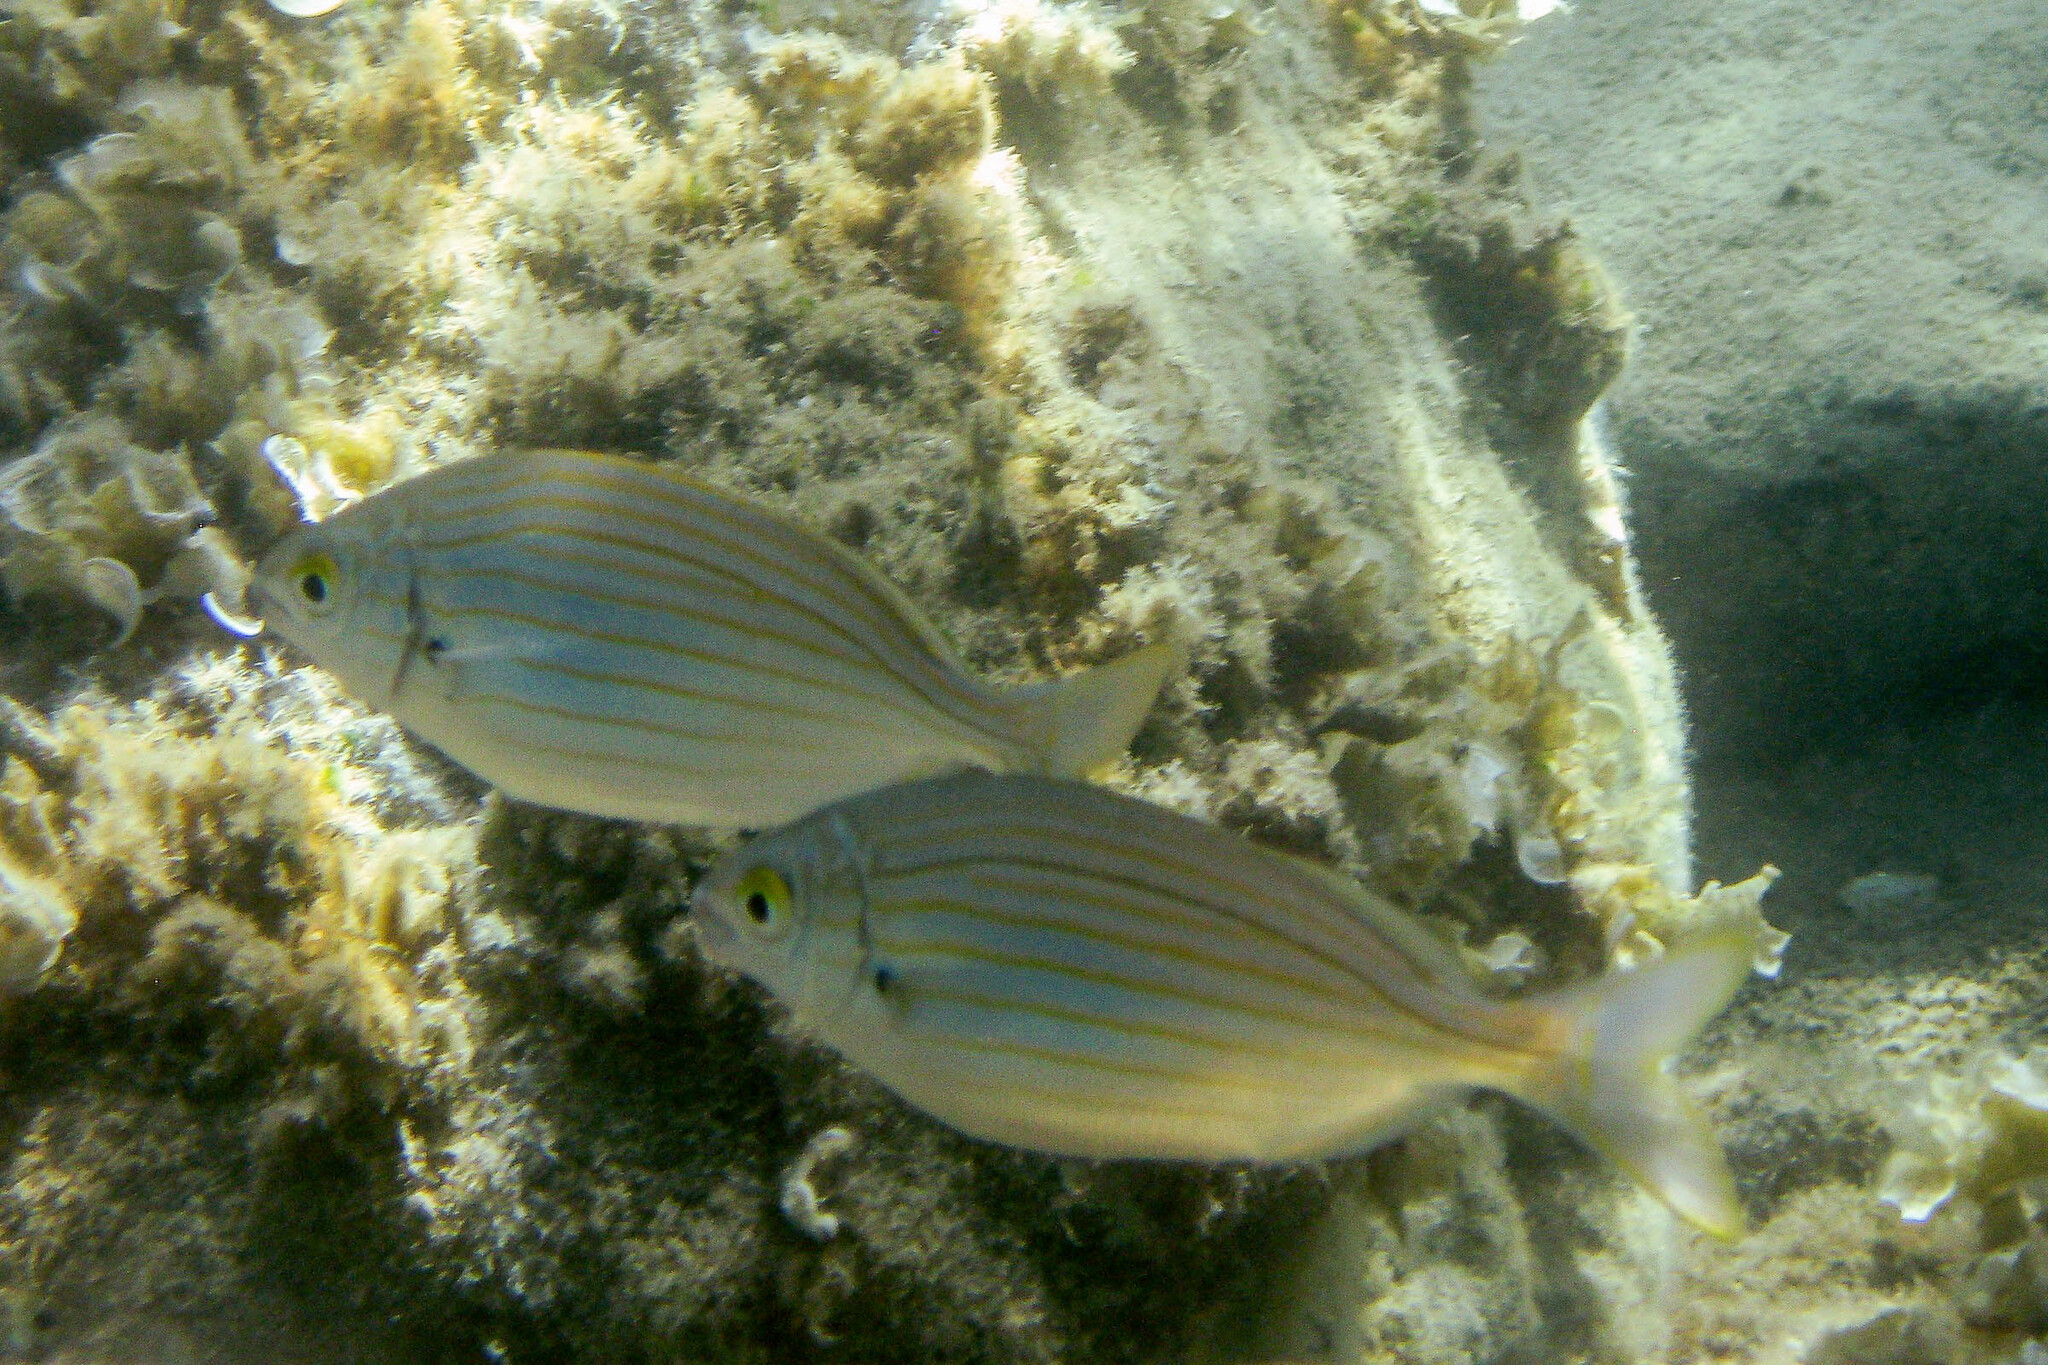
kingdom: Animalia
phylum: Chordata
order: Perciformes
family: Sparidae
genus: Sarpa
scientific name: Sarpa salpa
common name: Salema
